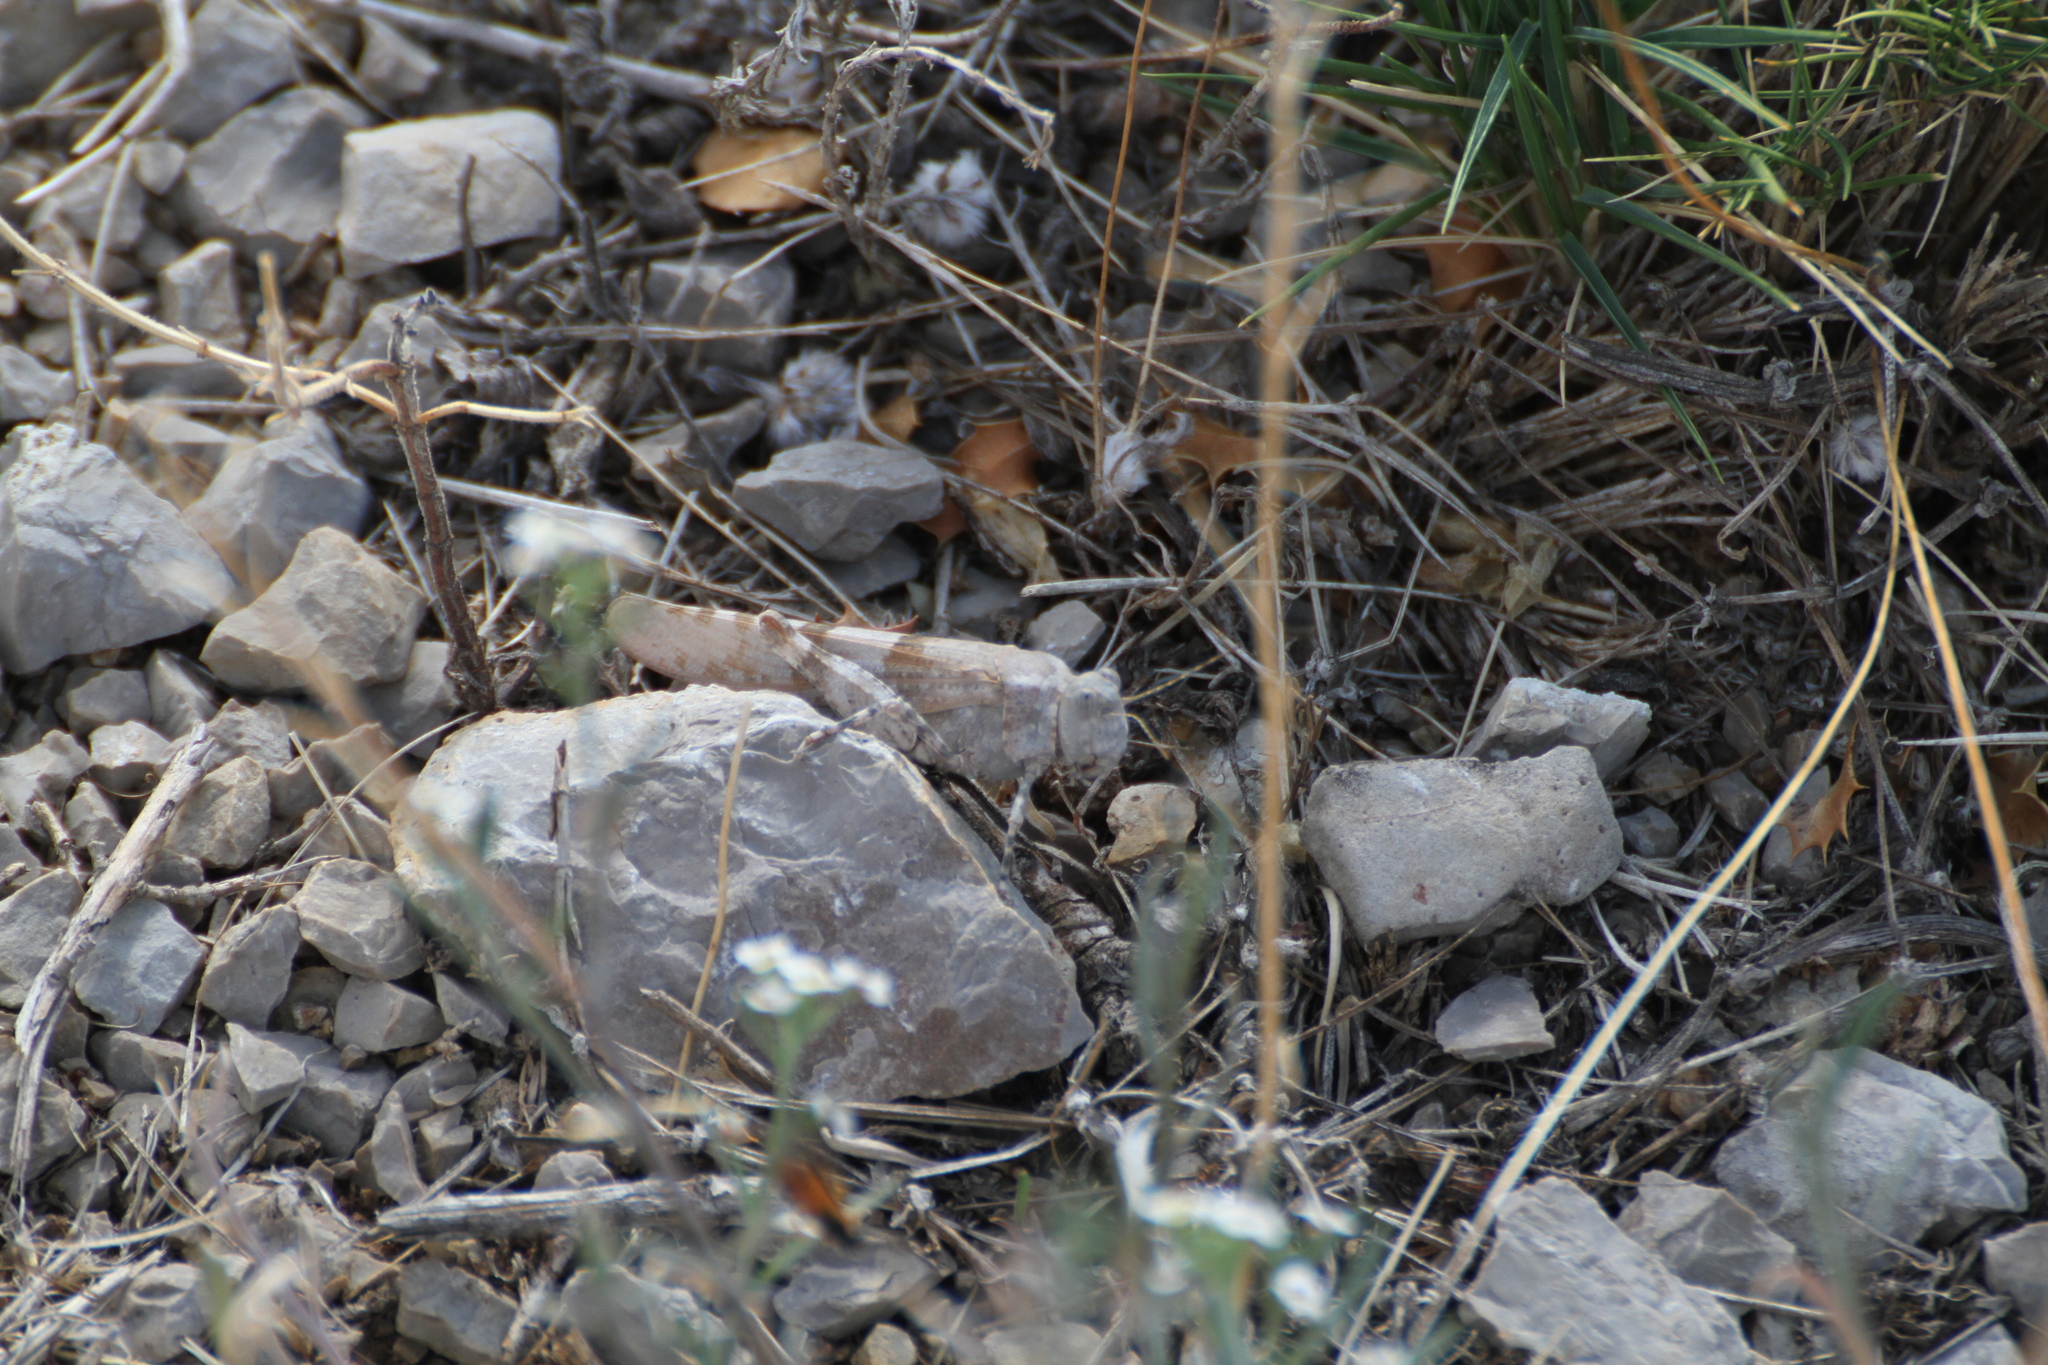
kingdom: Animalia
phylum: Arthropoda
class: Insecta
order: Orthoptera
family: Acrididae
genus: Sphingonotus
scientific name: Sphingonotus caerulans
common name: Blue-winged locust
